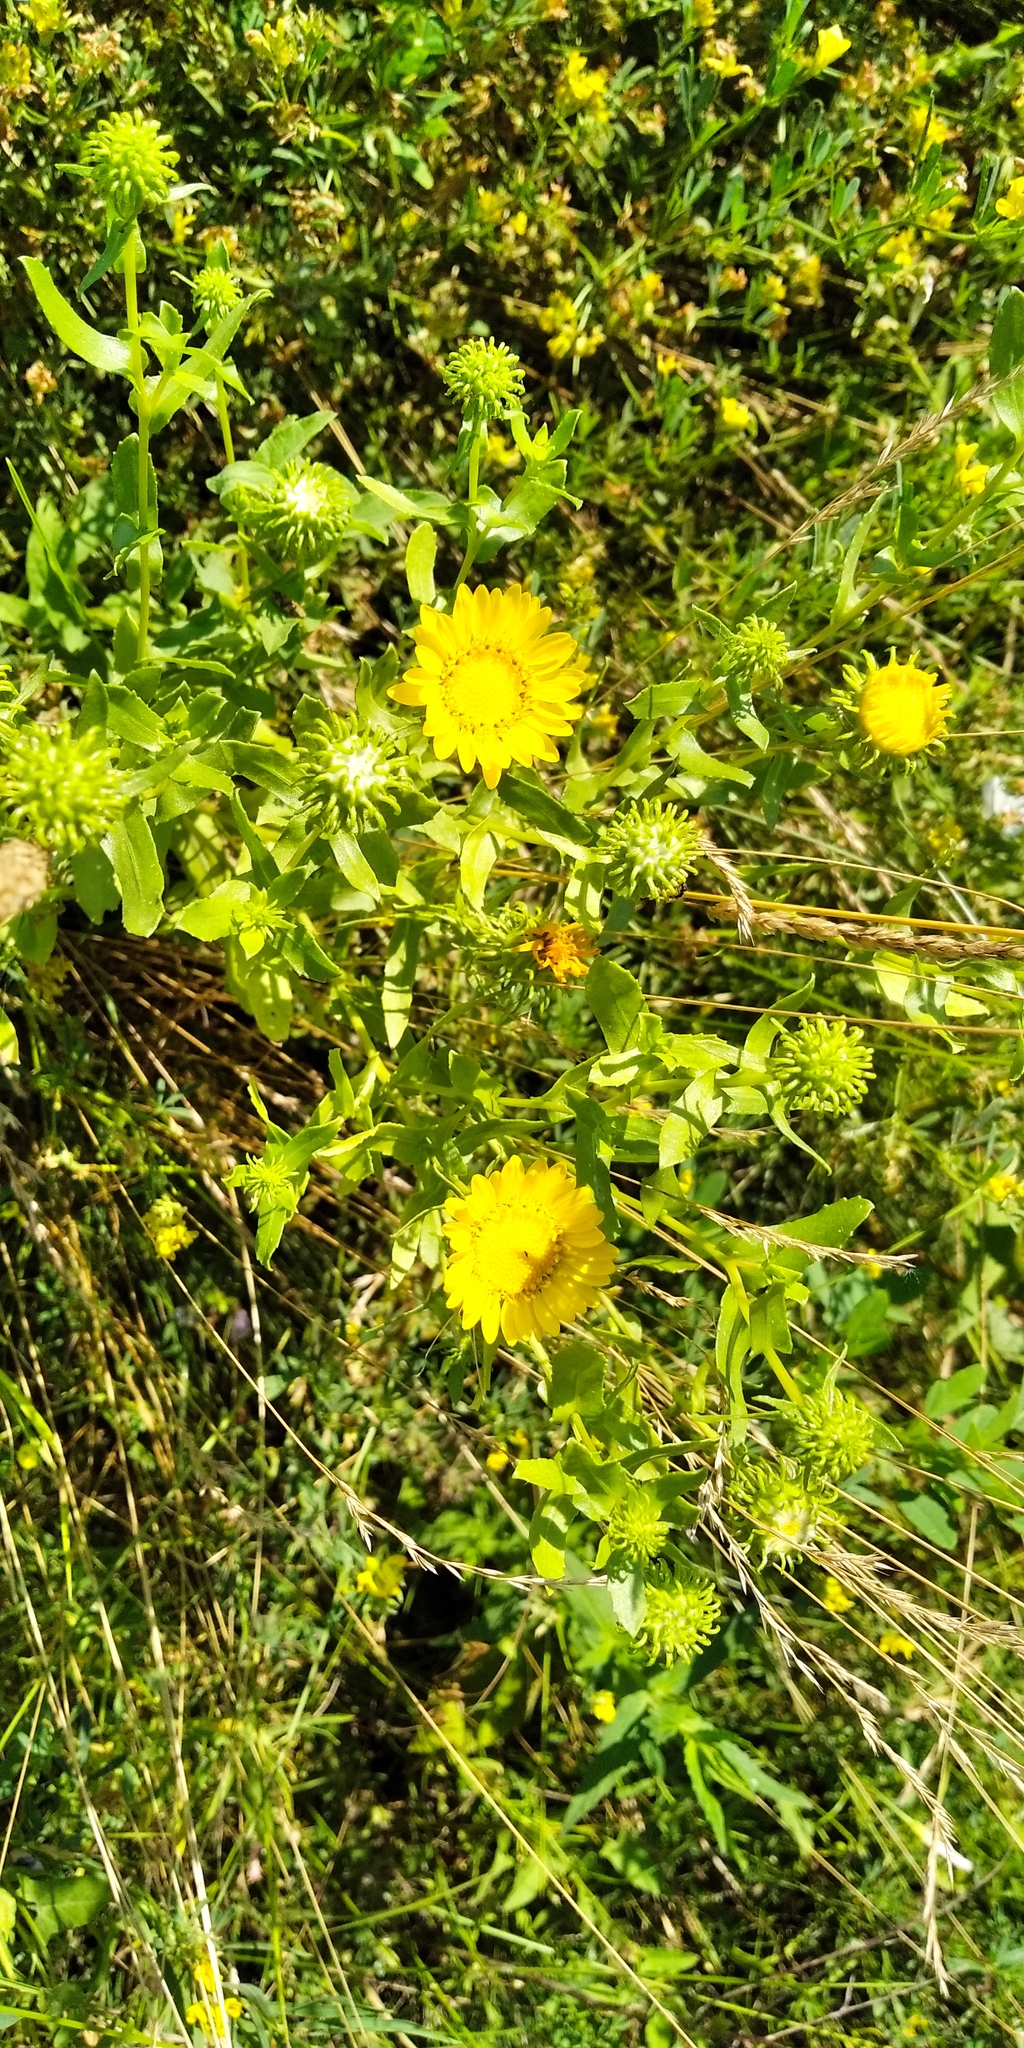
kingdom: Plantae
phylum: Tracheophyta
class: Magnoliopsida
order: Asterales
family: Asteraceae
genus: Grindelia
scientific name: Grindelia squarrosa
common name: Curly-cup gumweed
